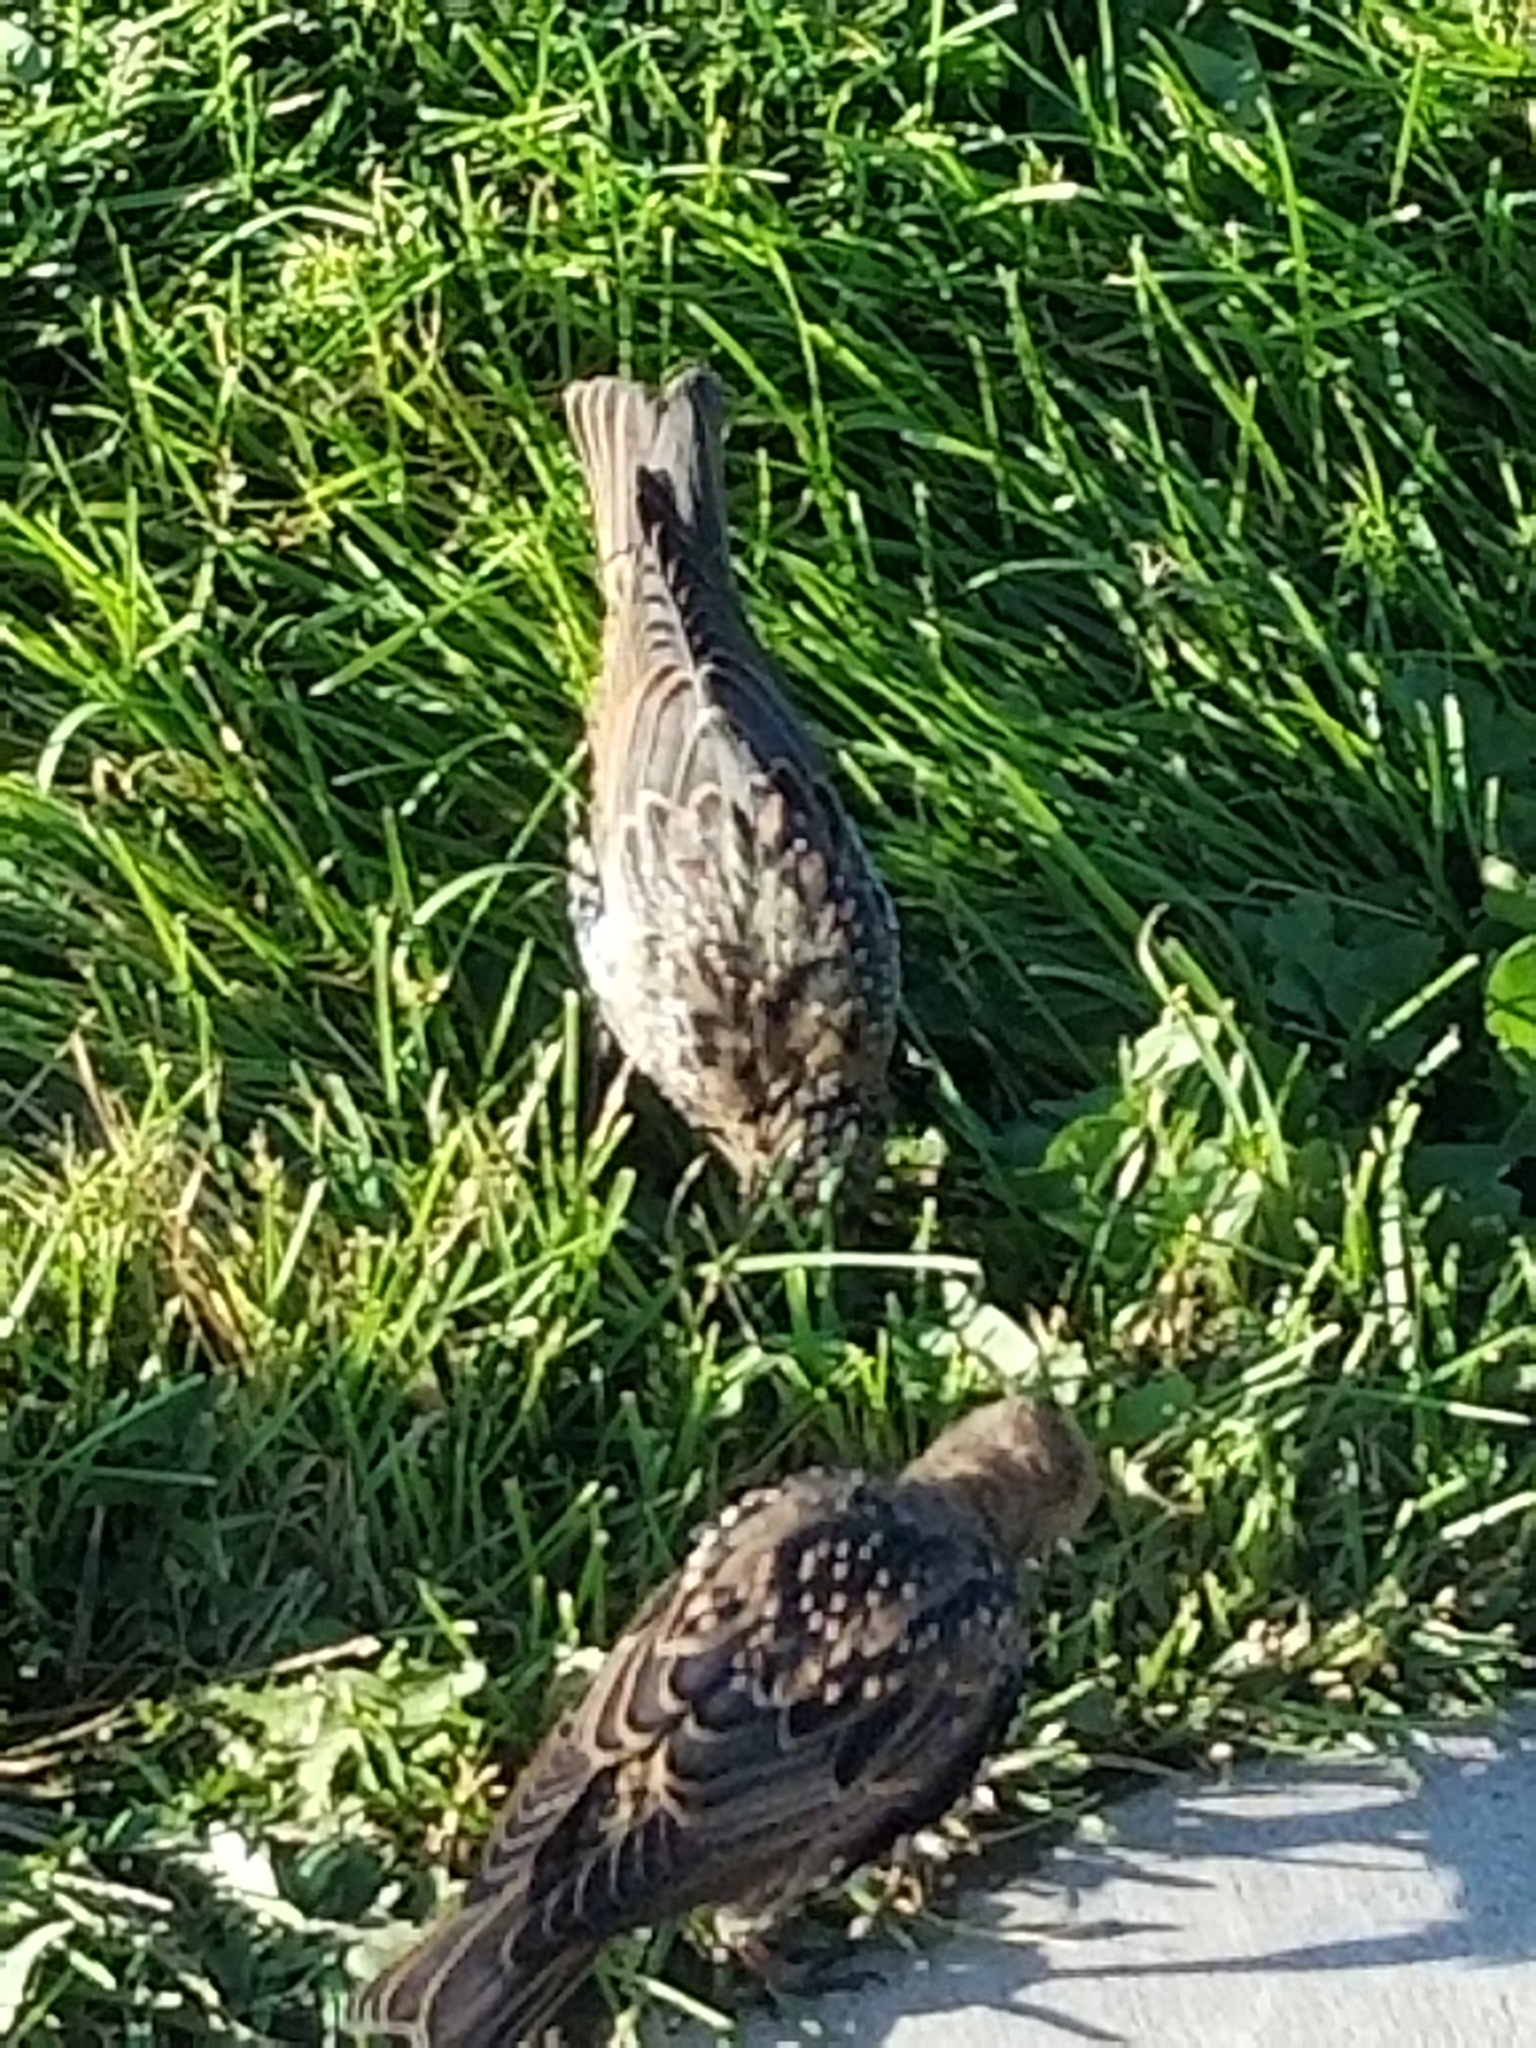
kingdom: Animalia
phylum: Chordata
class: Aves
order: Passeriformes
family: Sturnidae
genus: Sturnus
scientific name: Sturnus vulgaris
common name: Common starling
